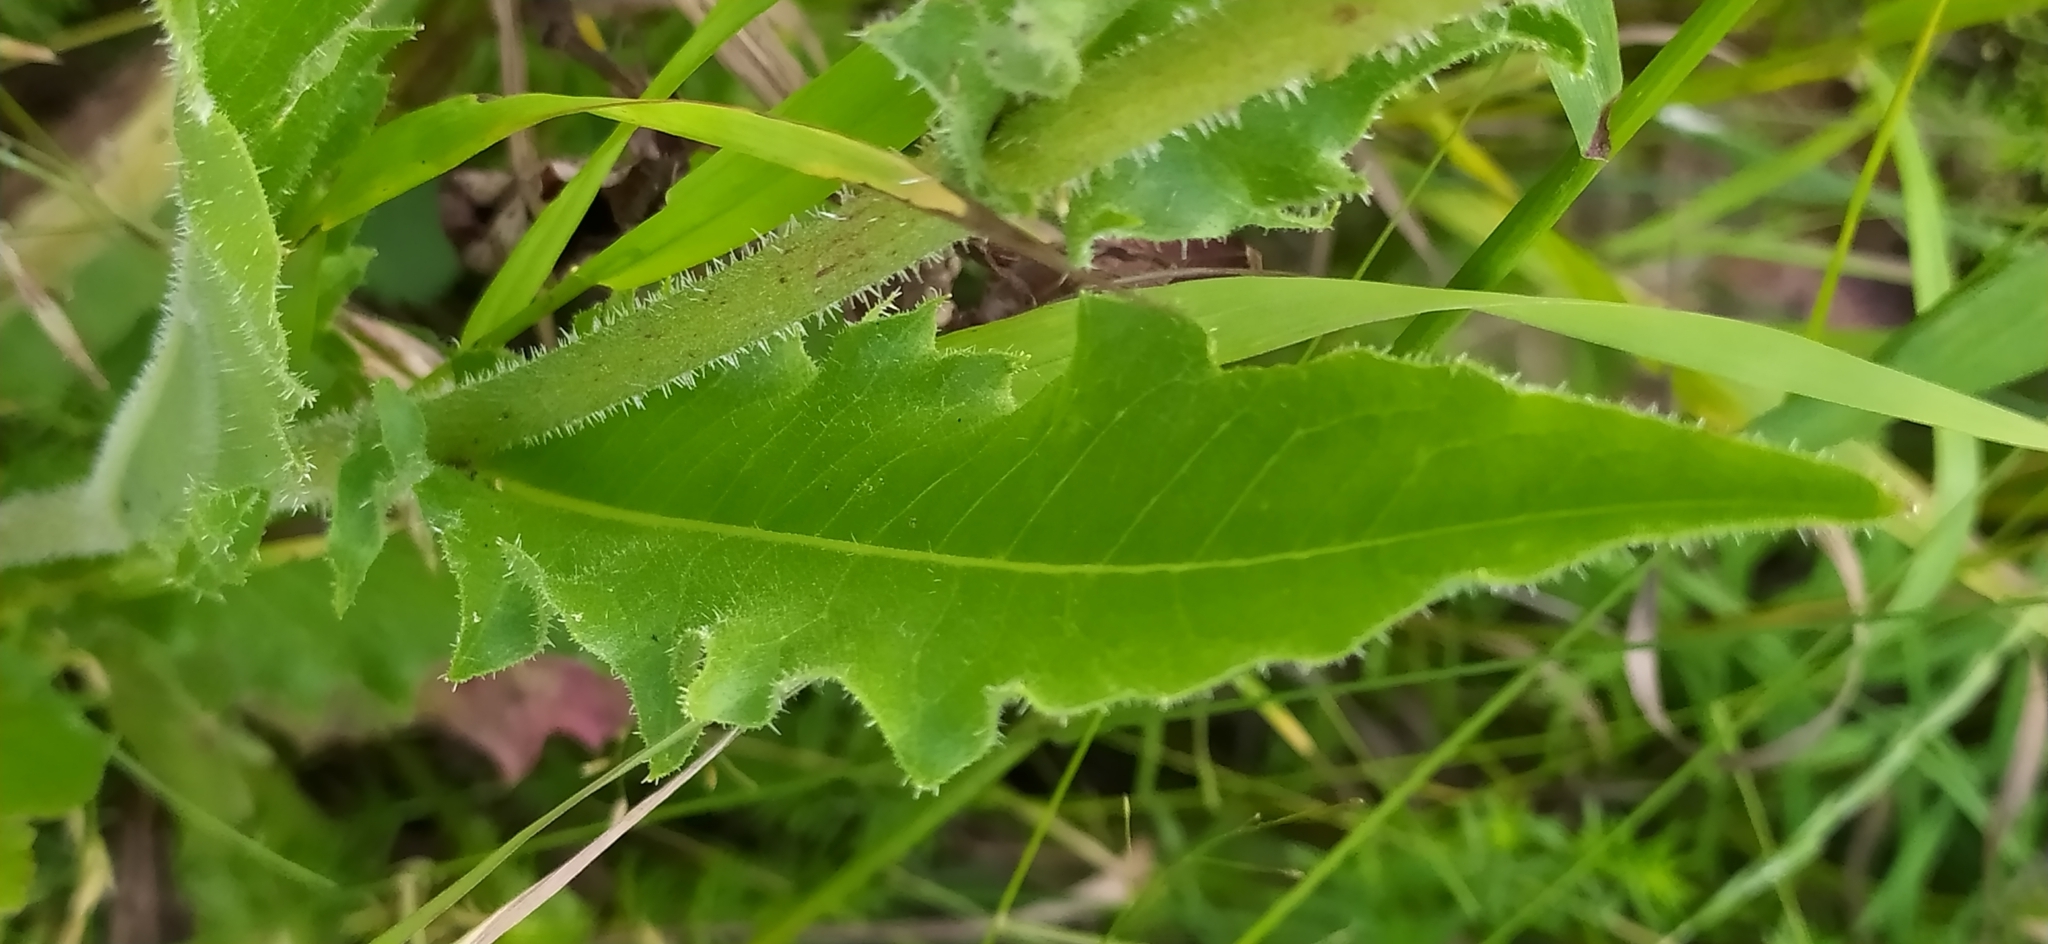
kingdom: Plantae
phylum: Tracheophyta
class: Magnoliopsida
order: Asterales
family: Asteraceae
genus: Picris
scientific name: Picris hieracioides
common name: Hawkweed oxtongue
